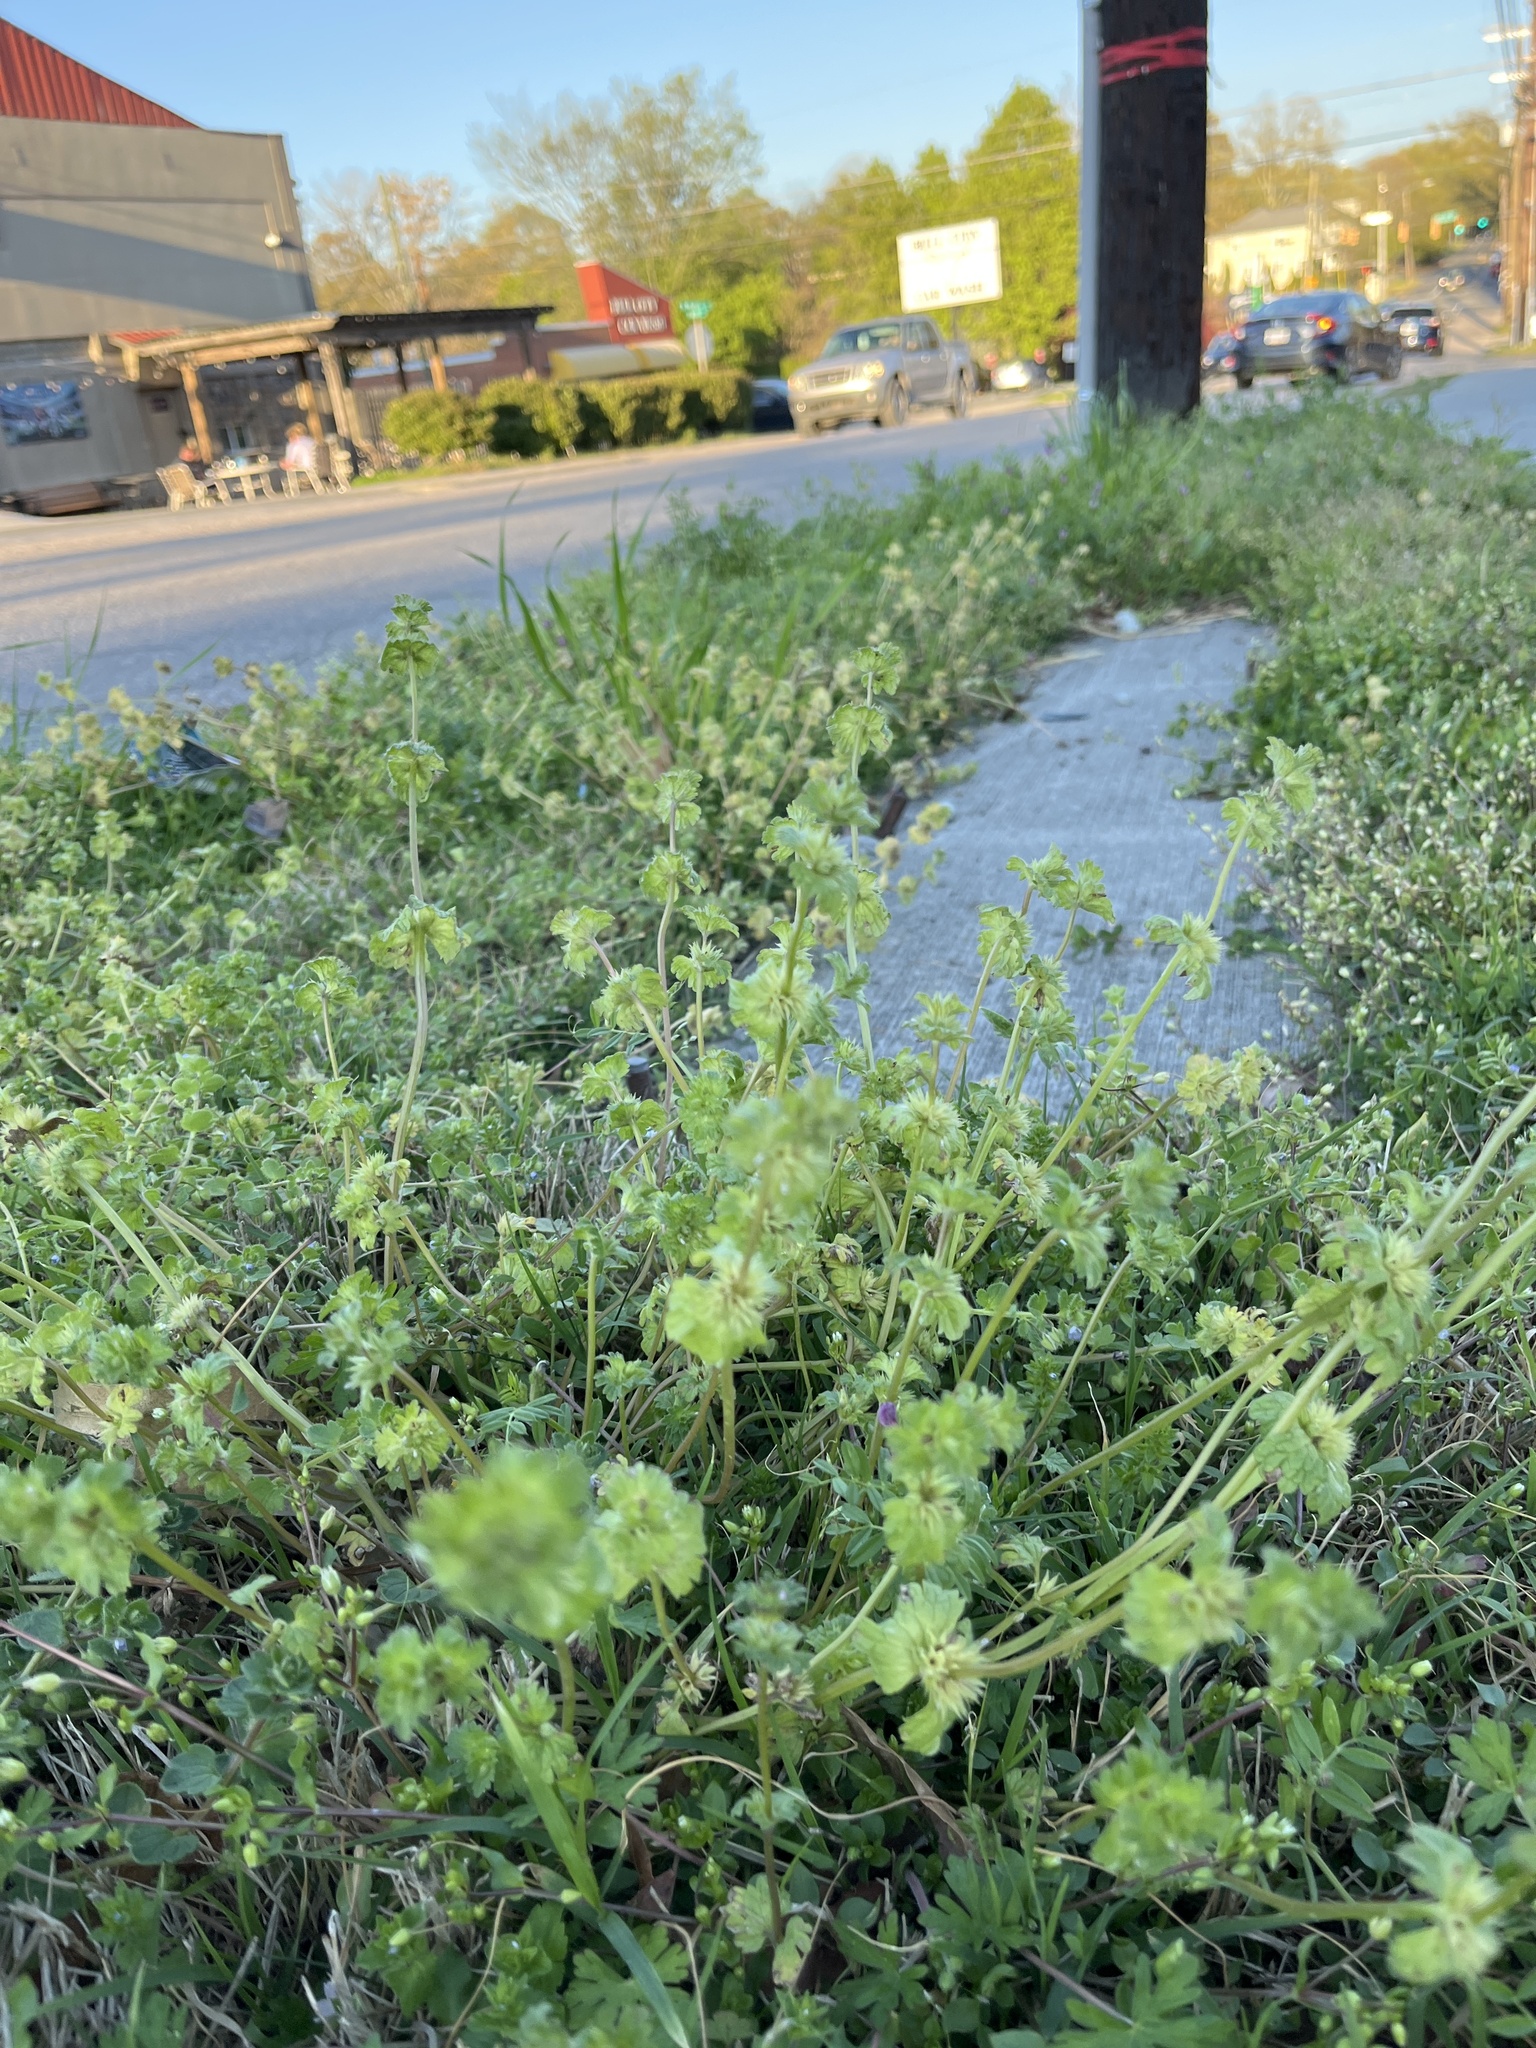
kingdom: Plantae
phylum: Tracheophyta
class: Magnoliopsida
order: Lamiales
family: Lamiaceae
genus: Lamium
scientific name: Lamium amplexicaule
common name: Henbit dead-nettle
